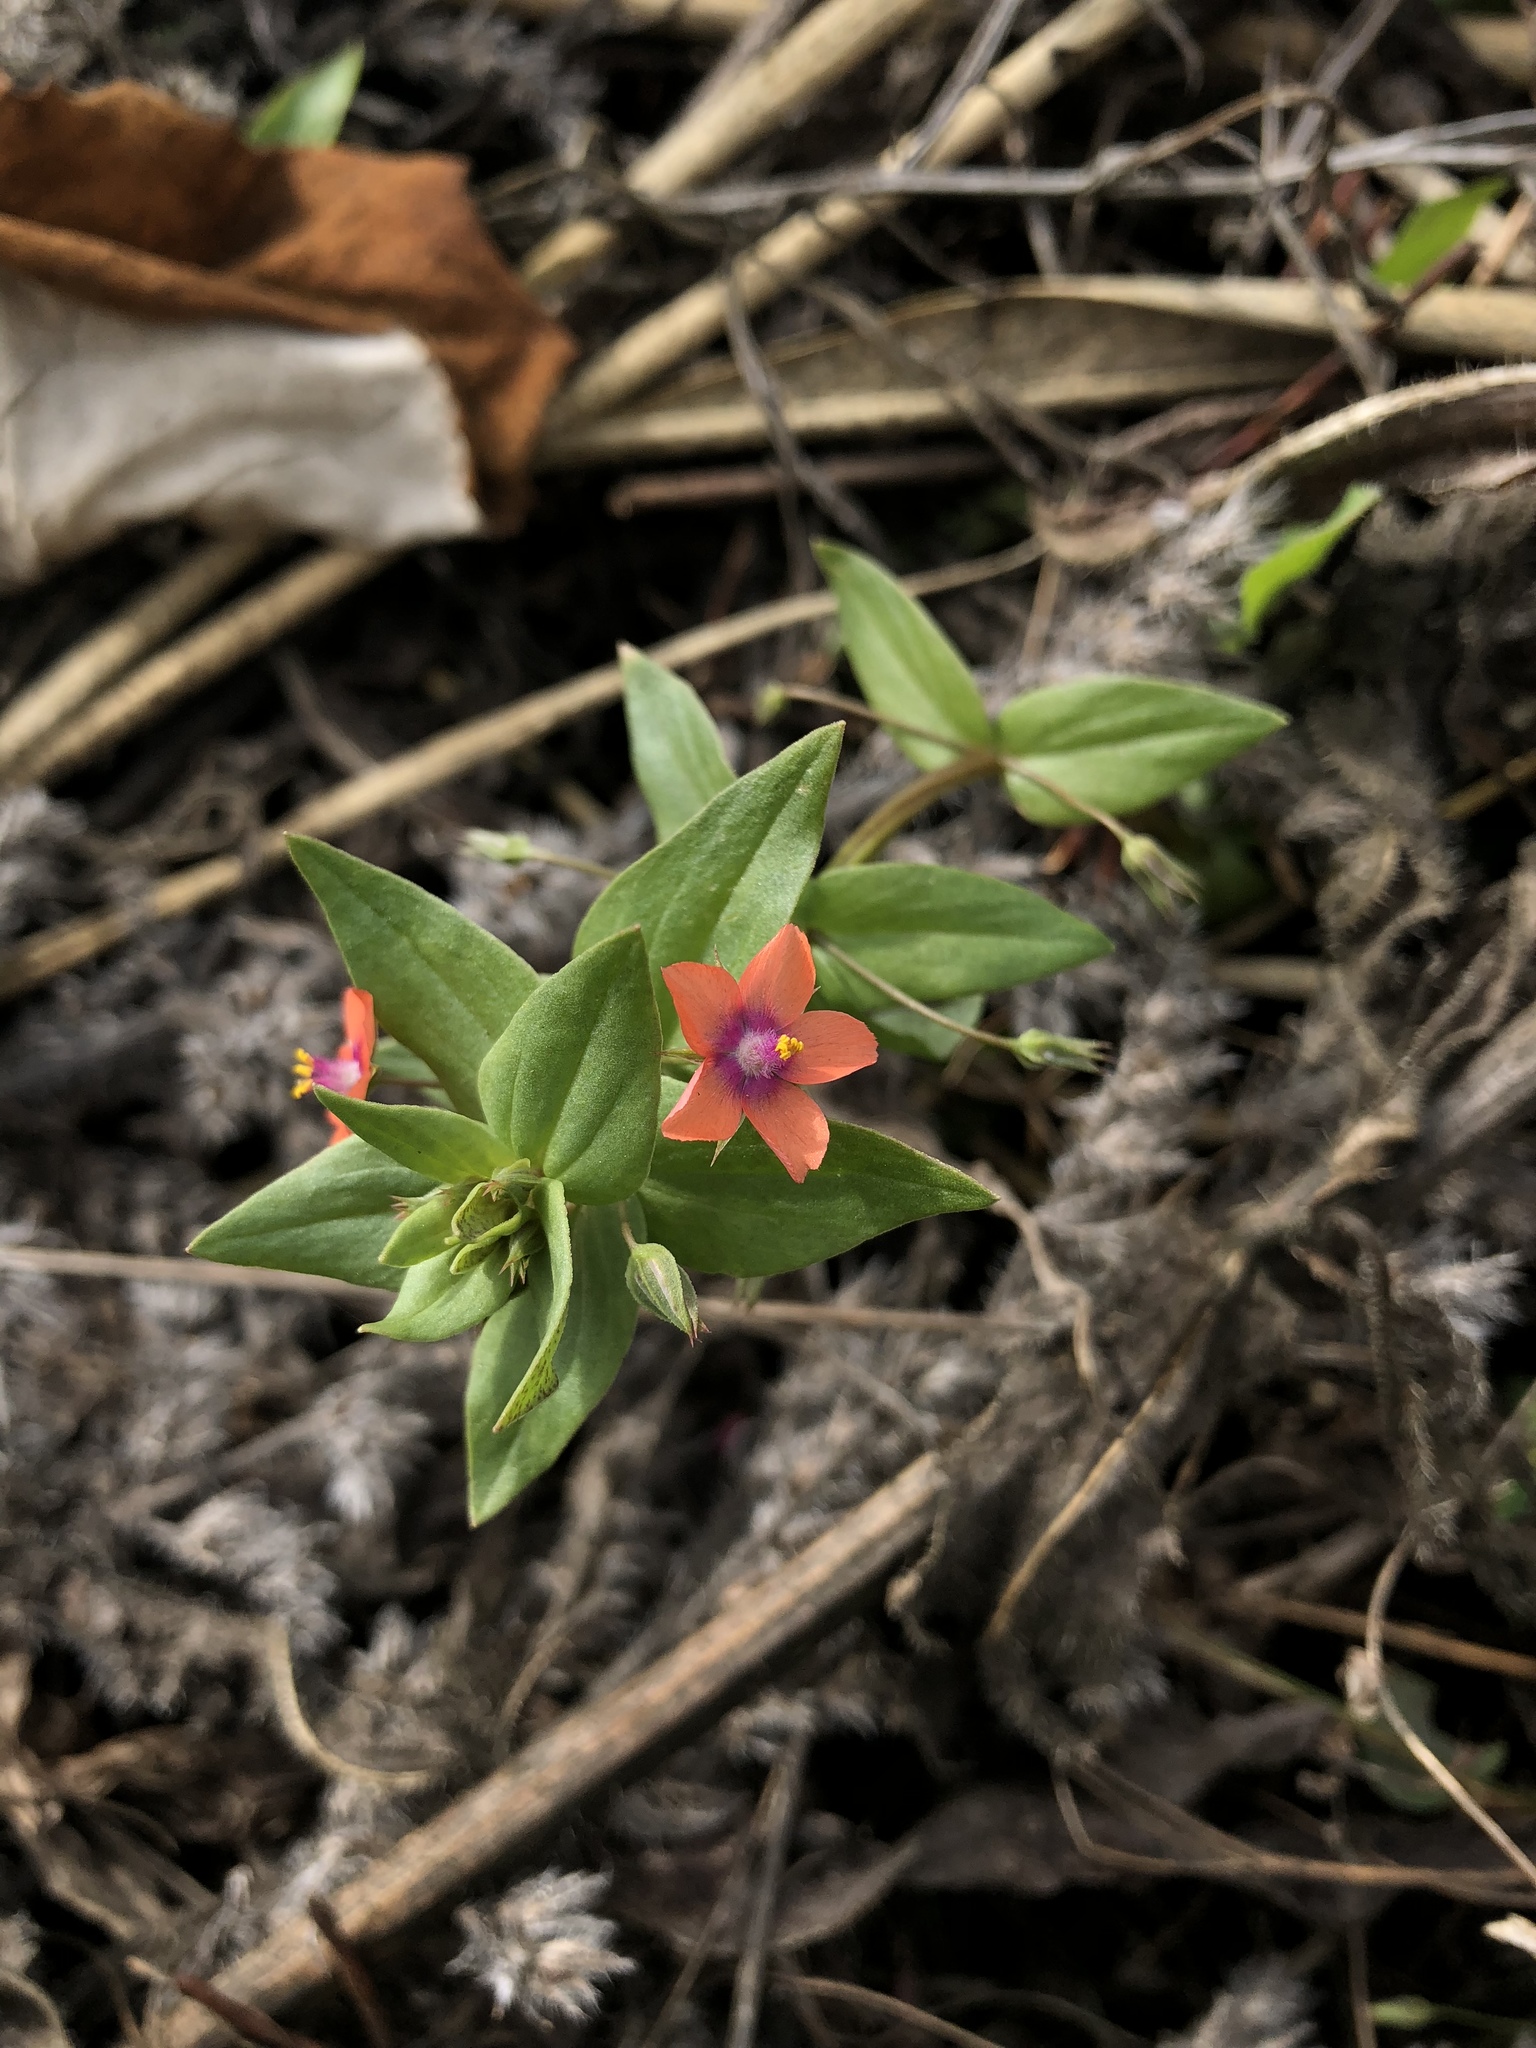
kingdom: Plantae
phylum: Tracheophyta
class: Magnoliopsida
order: Ericales
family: Primulaceae
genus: Lysimachia
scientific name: Lysimachia arvensis
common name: Scarlet pimpernel
